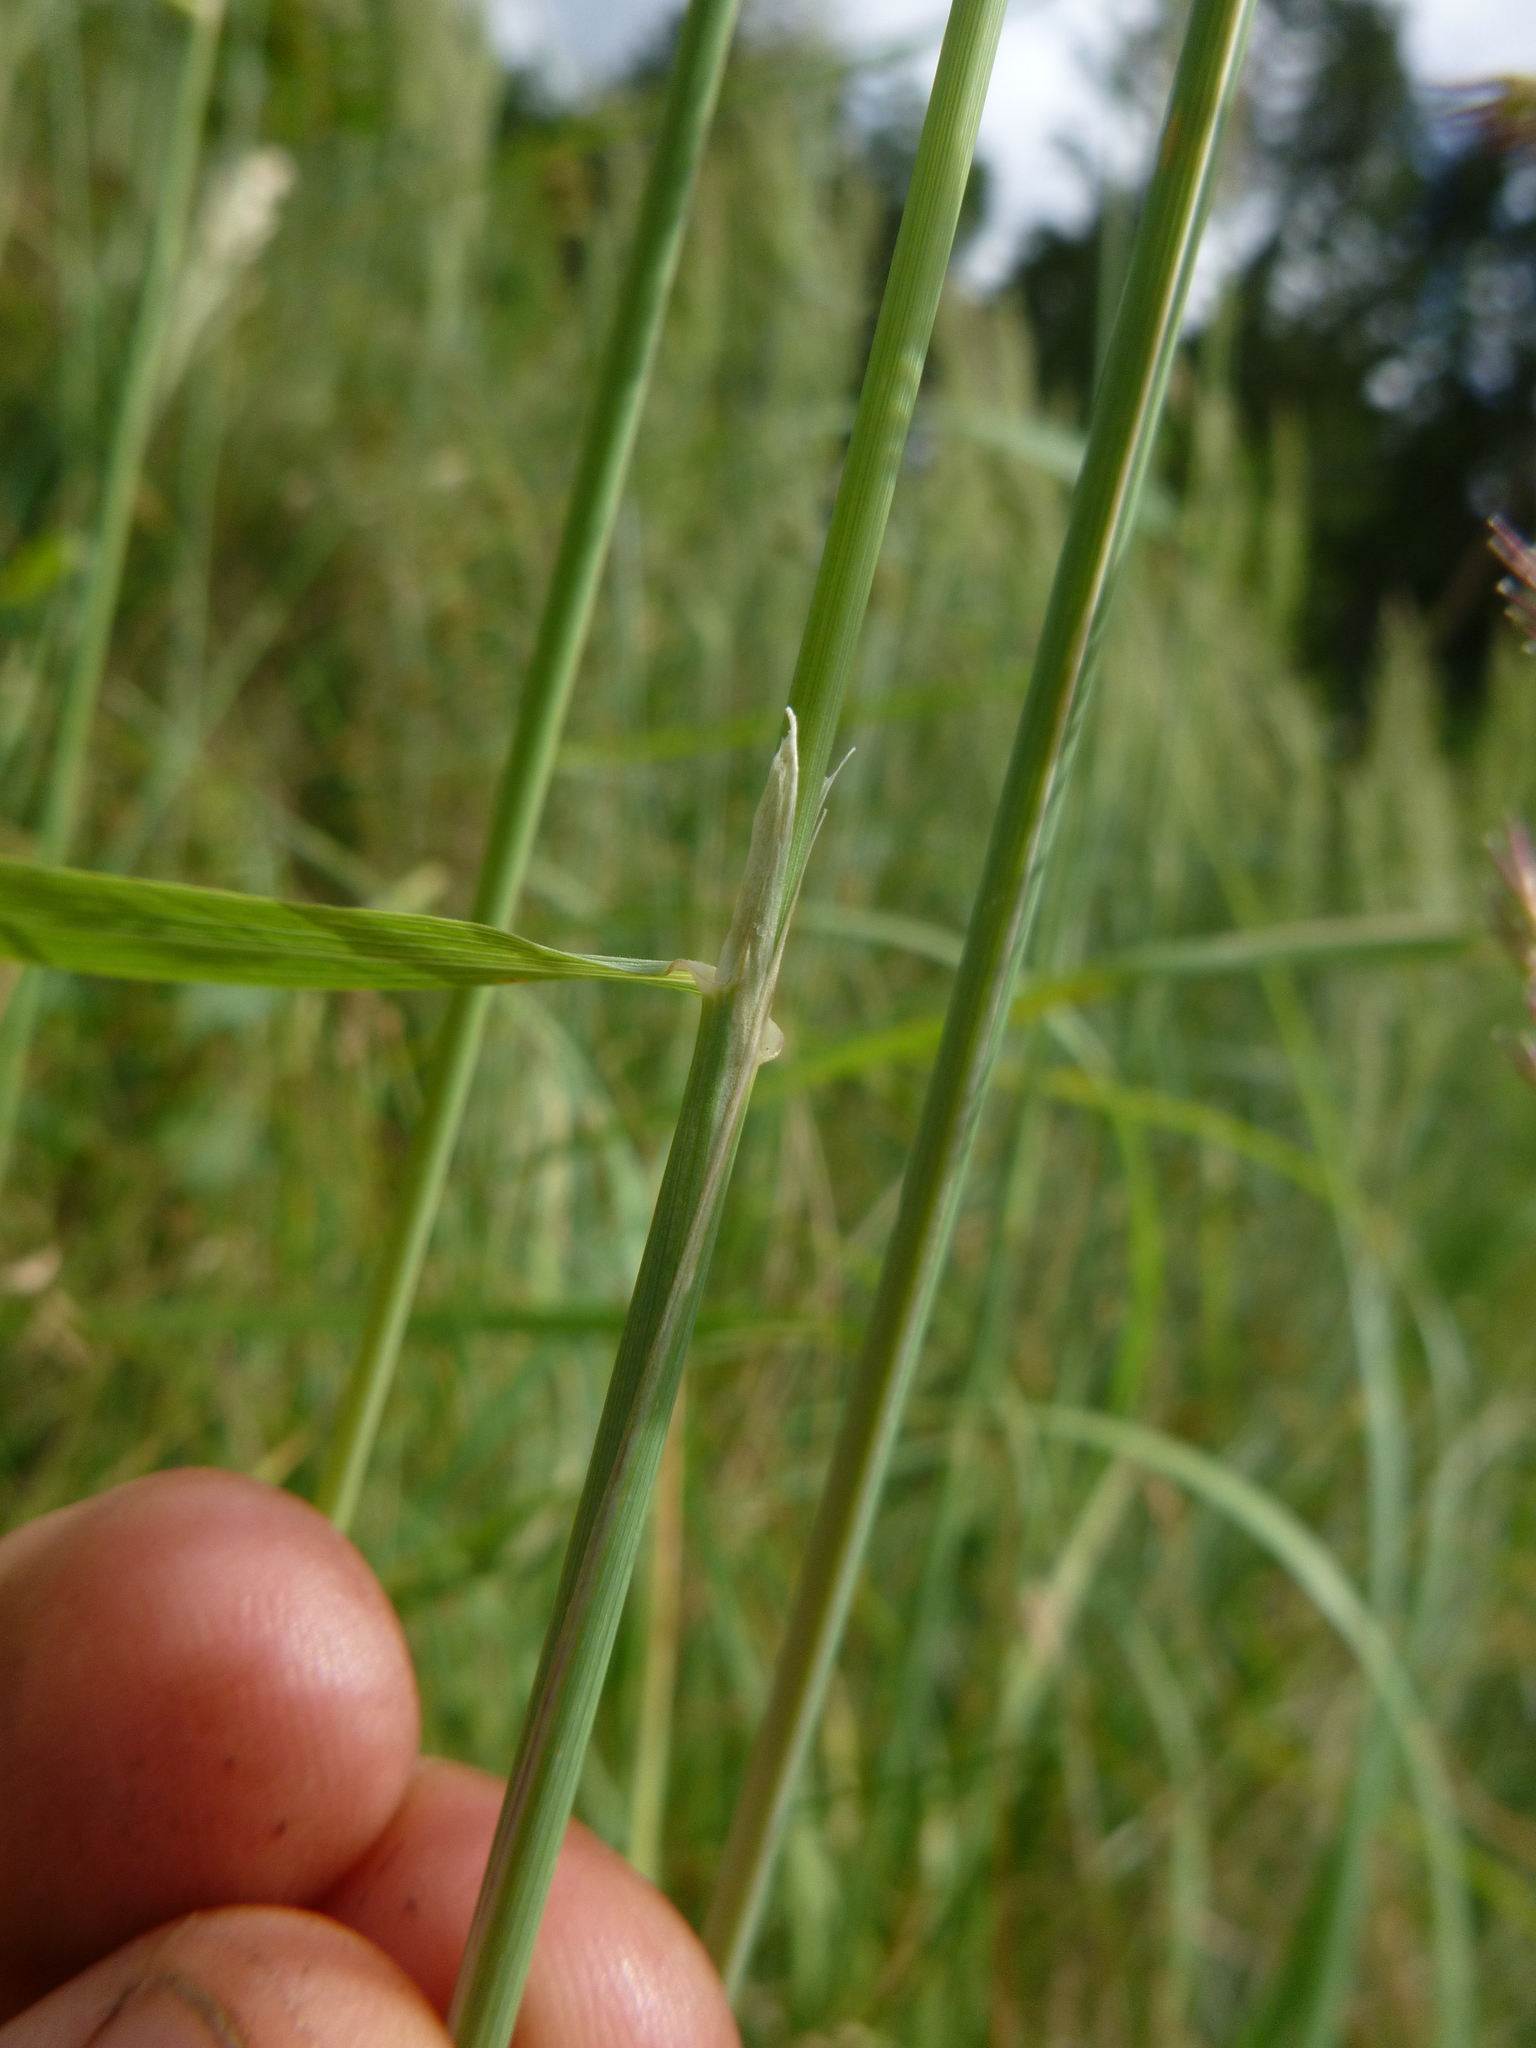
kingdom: Plantae
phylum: Tracheophyta
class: Liliopsida
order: Poales
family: Poaceae
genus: Calamagrostis
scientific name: Calamagrostis epigejos
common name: Wood small-reed
